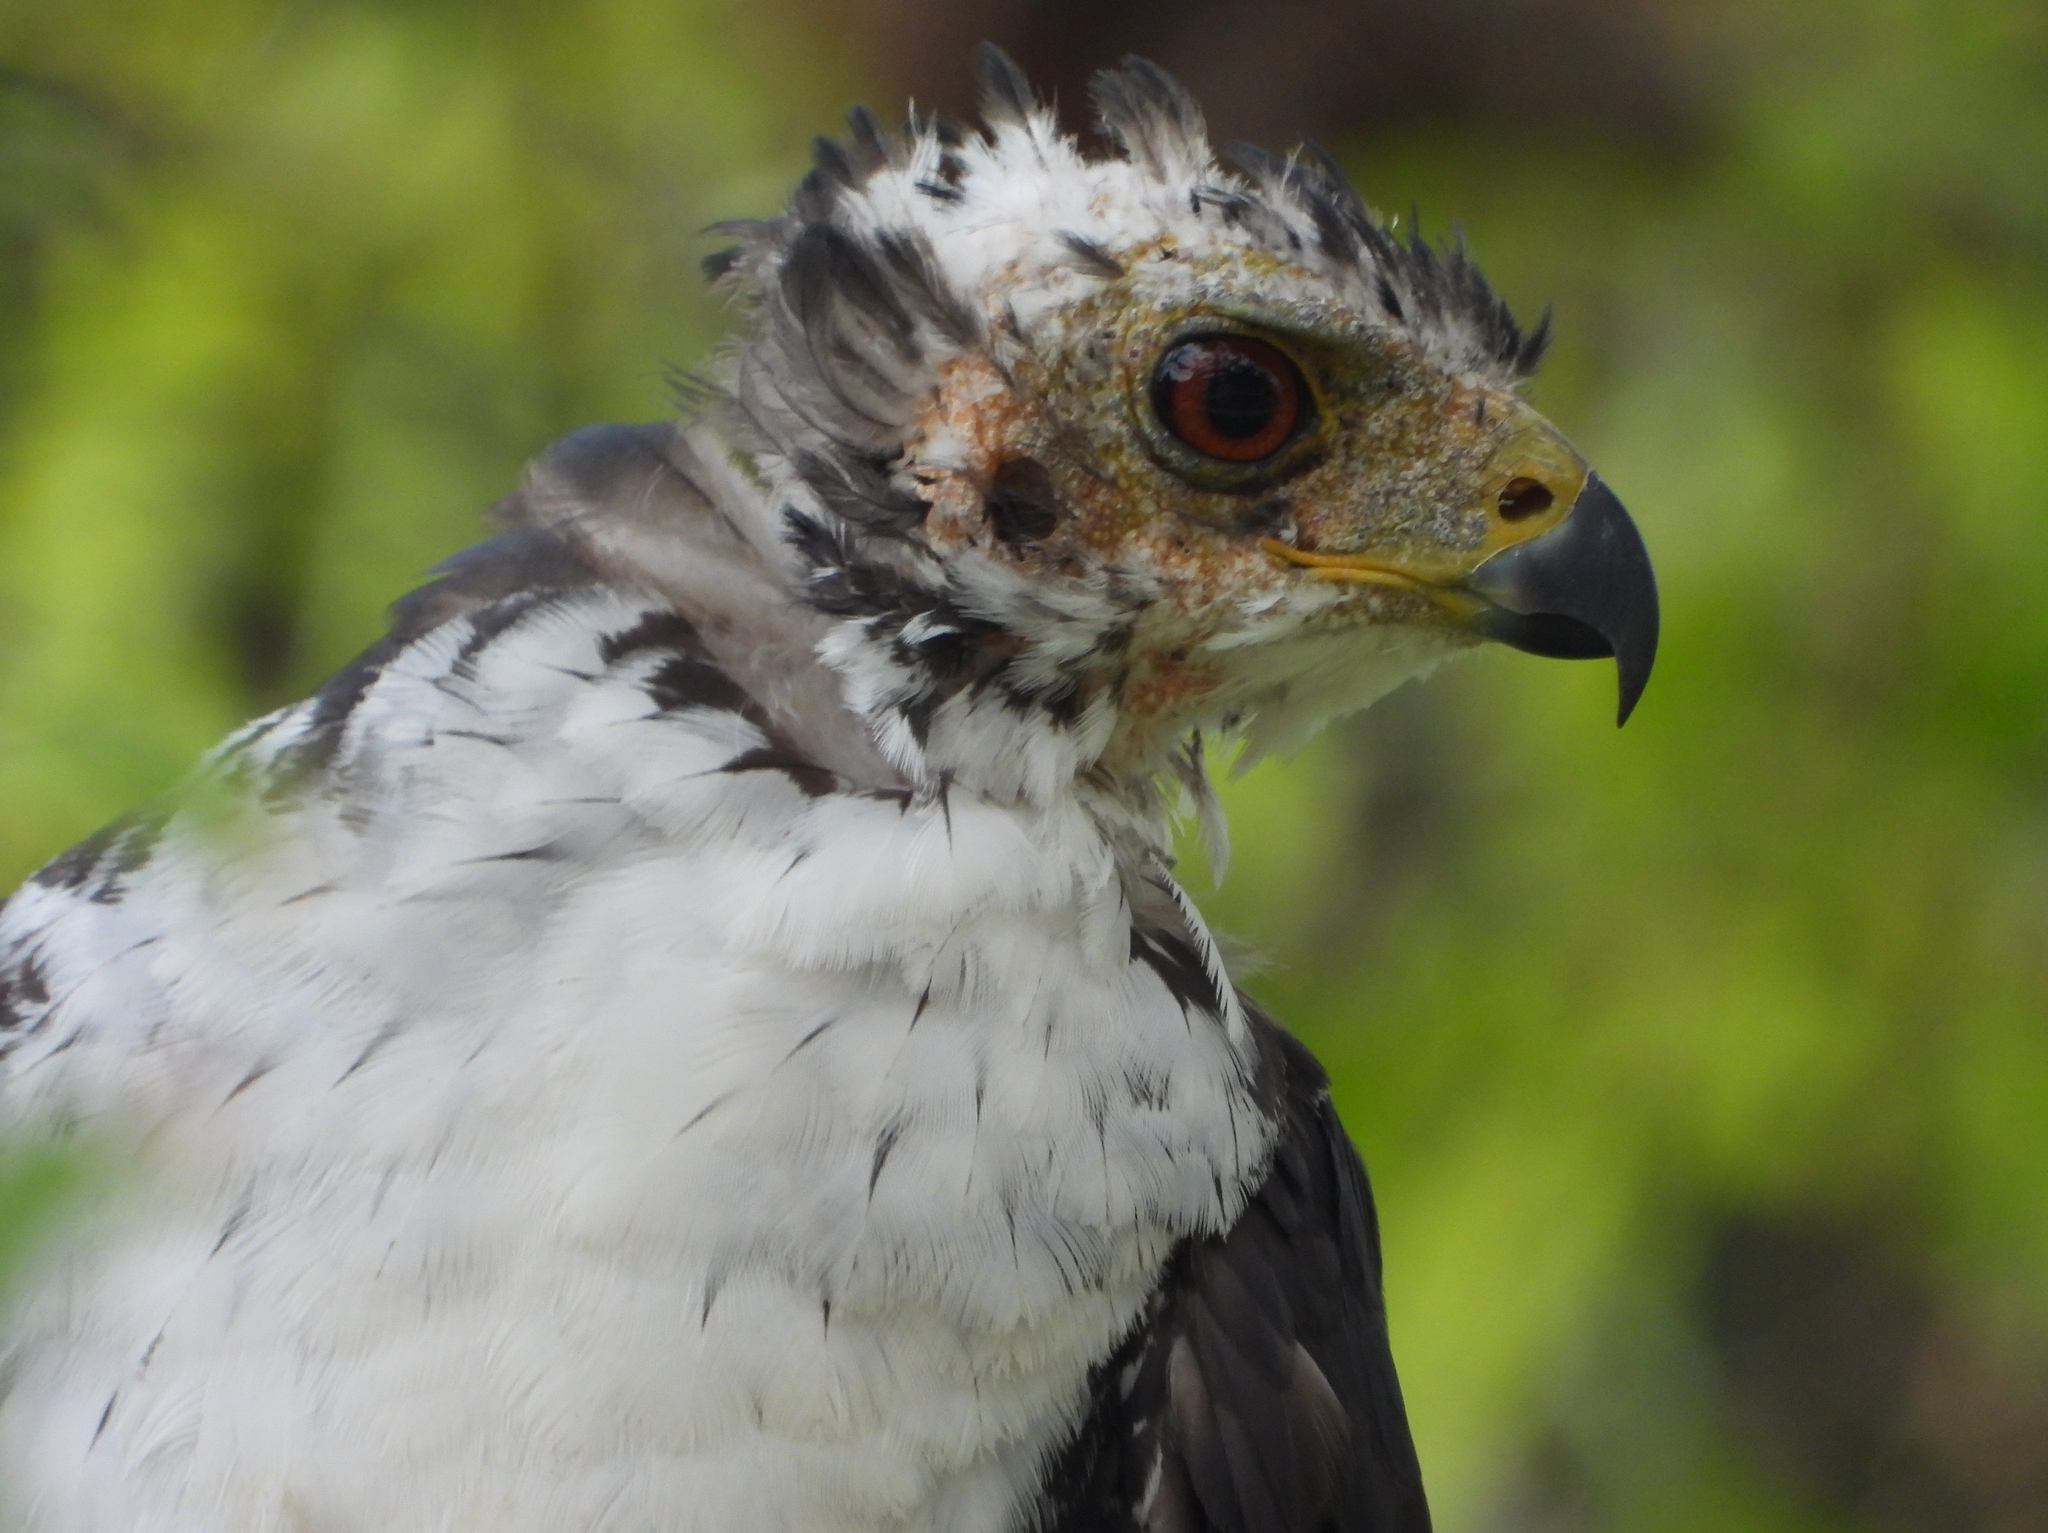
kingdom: Animalia
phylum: Chordata
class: Aves
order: Accipitriformes
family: Accipitridae
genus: Accipiter
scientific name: Accipiter melanoleucus
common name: Black sparrowhawk
